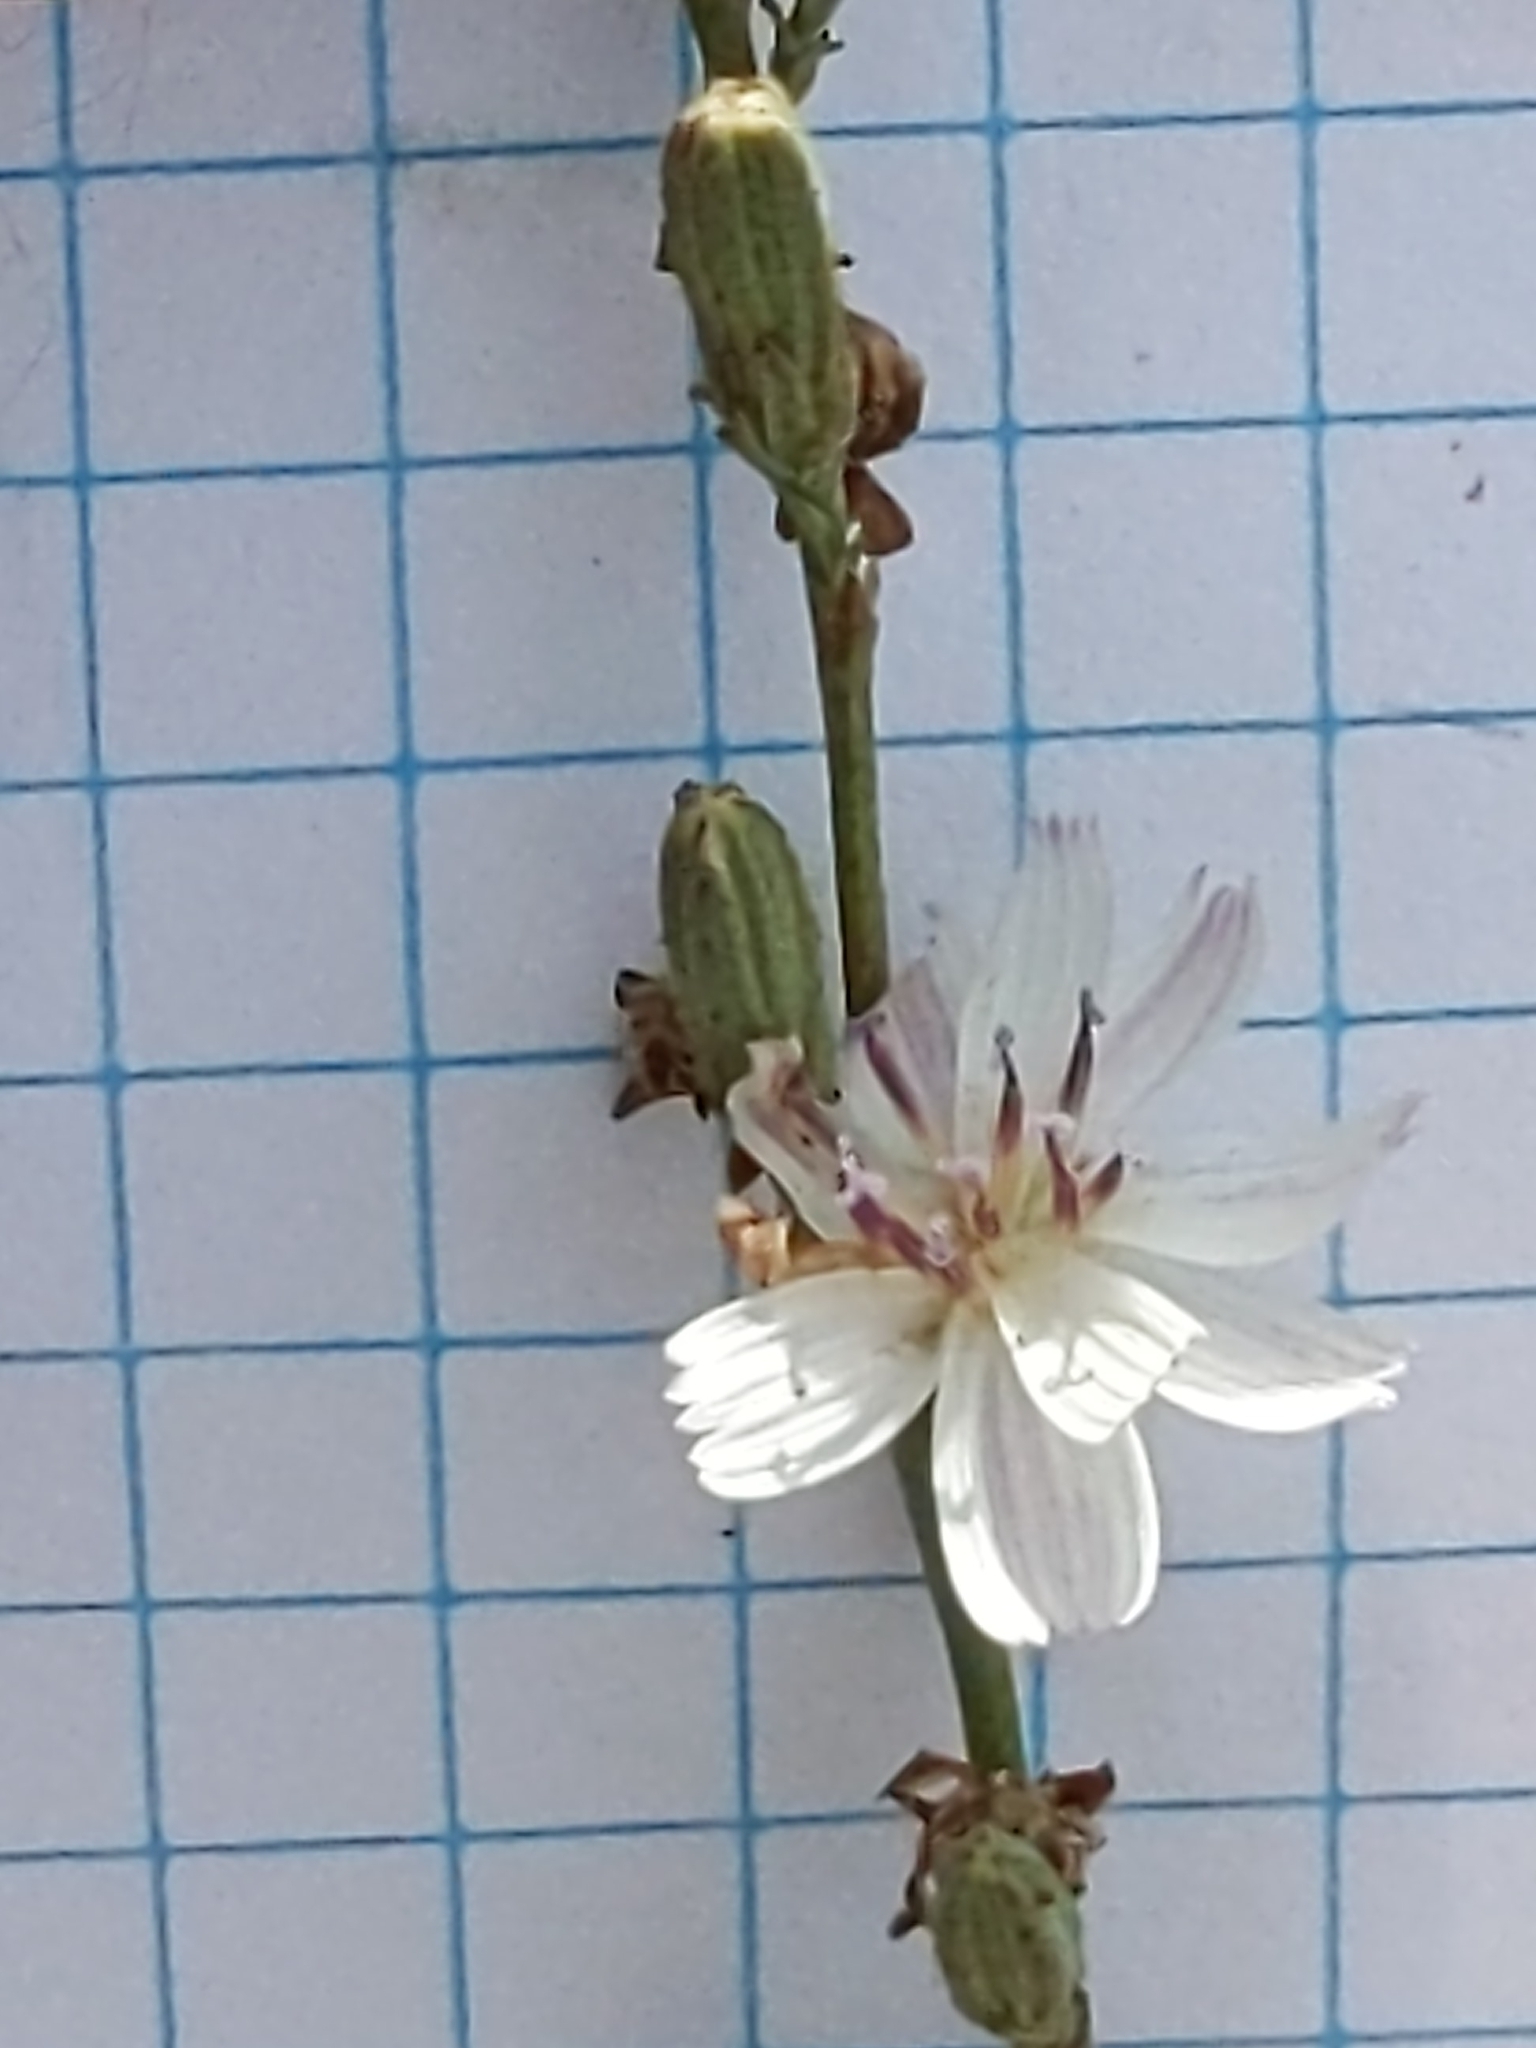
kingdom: Plantae
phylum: Tracheophyta
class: Magnoliopsida
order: Asterales
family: Asteraceae
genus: Stephanomeria
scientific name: Stephanomeria diegensis
